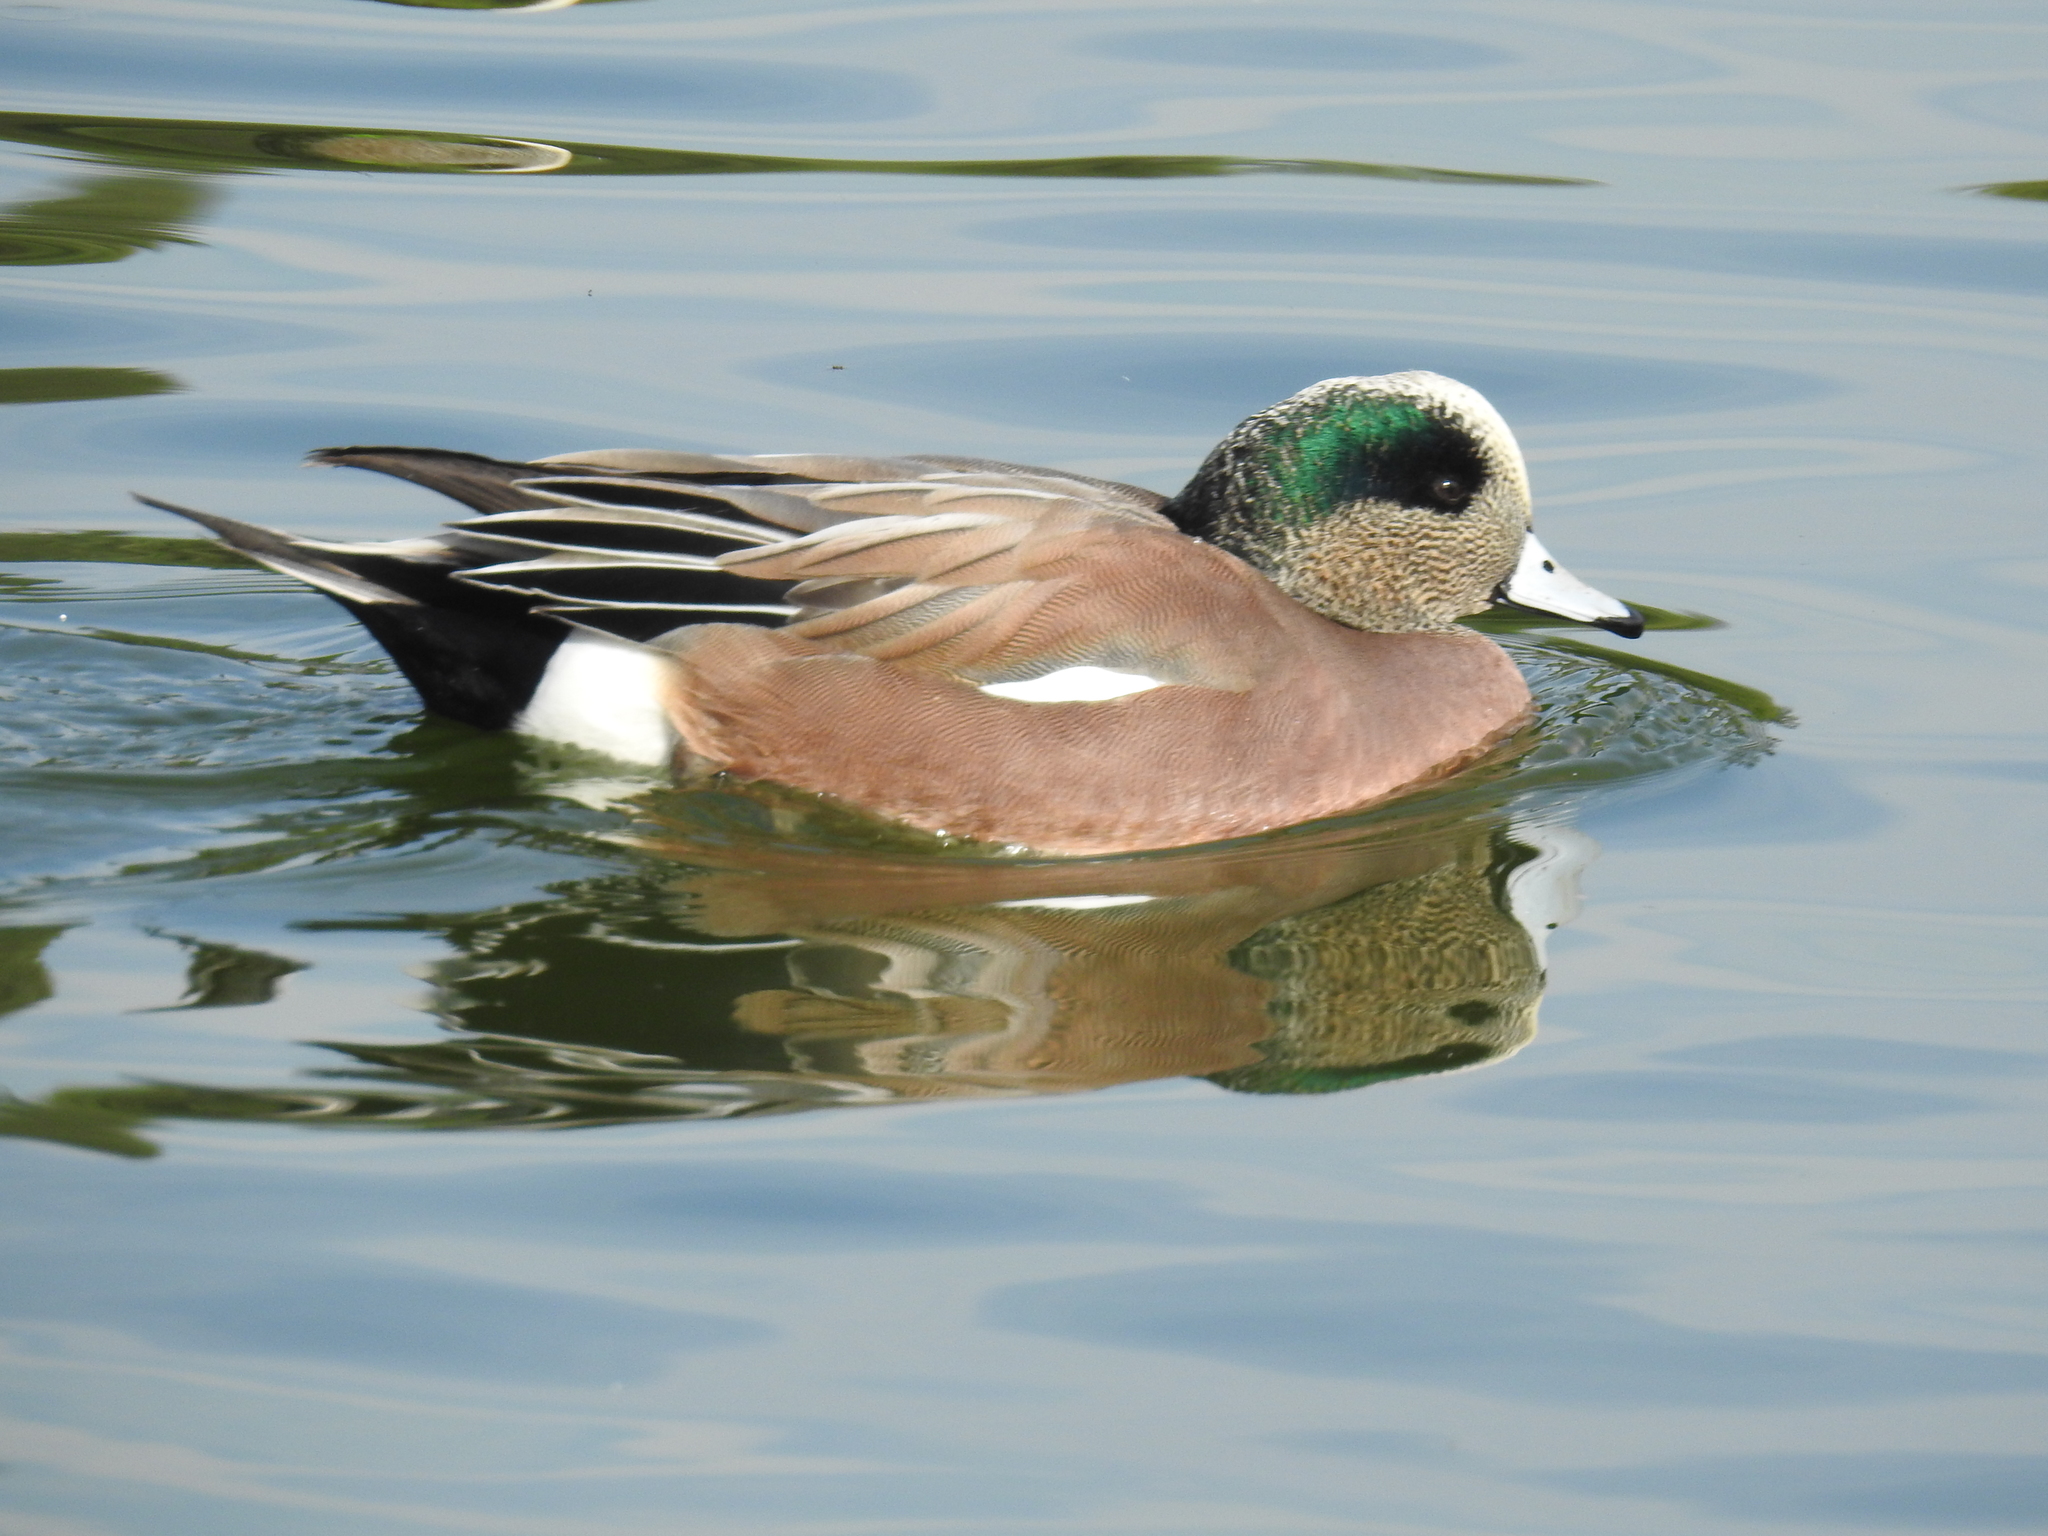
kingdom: Animalia
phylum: Chordata
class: Aves
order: Anseriformes
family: Anatidae
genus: Mareca
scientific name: Mareca americana
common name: American wigeon
